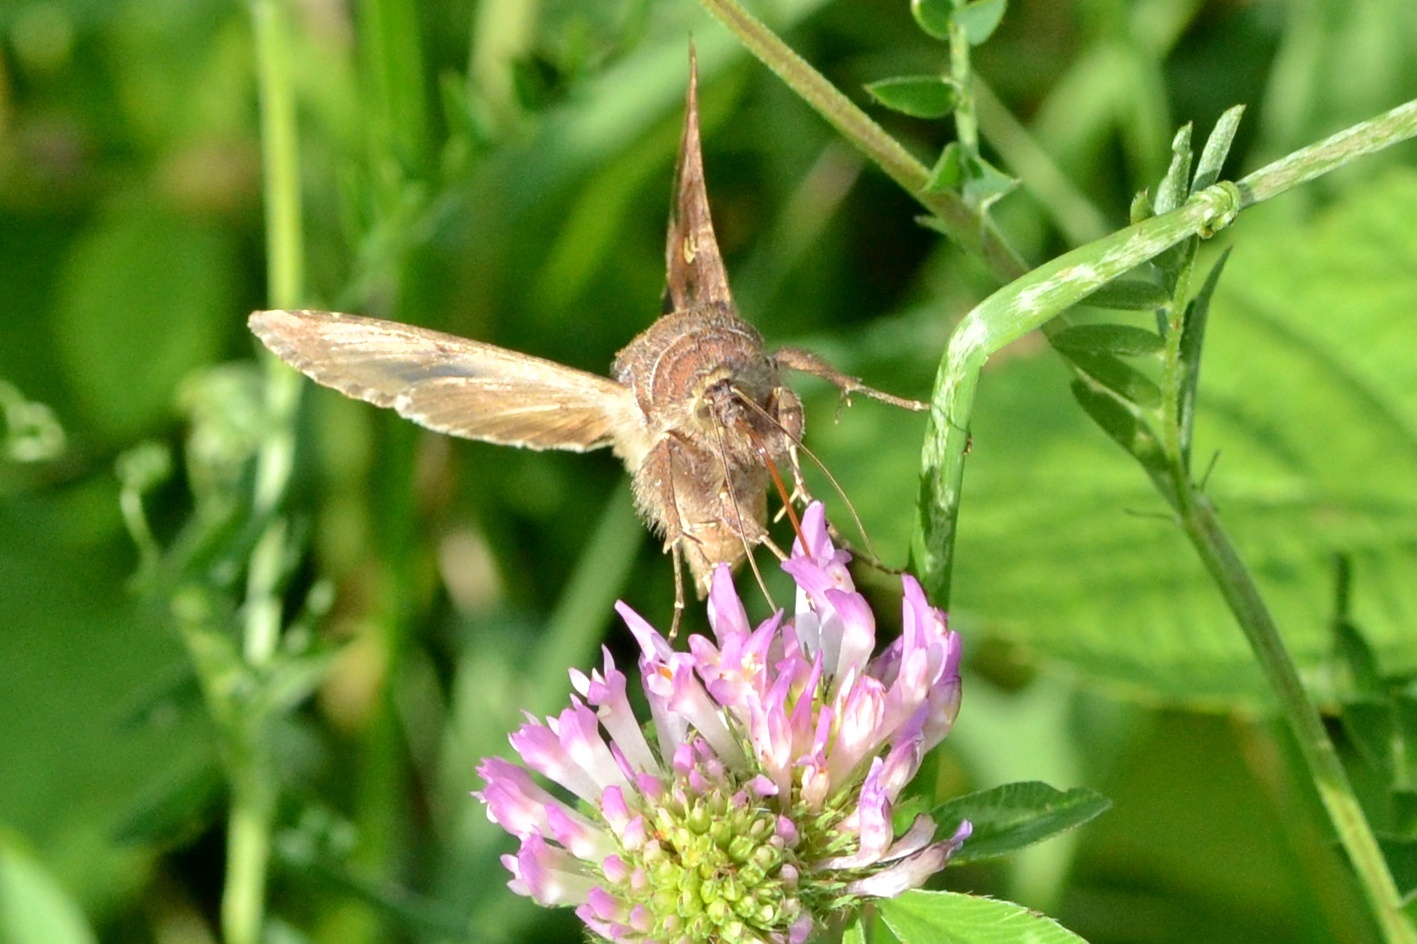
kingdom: Animalia
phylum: Arthropoda
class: Insecta
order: Lepidoptera
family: Noctuidae
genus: Autographa
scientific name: Autographa gamma
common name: Silver y
